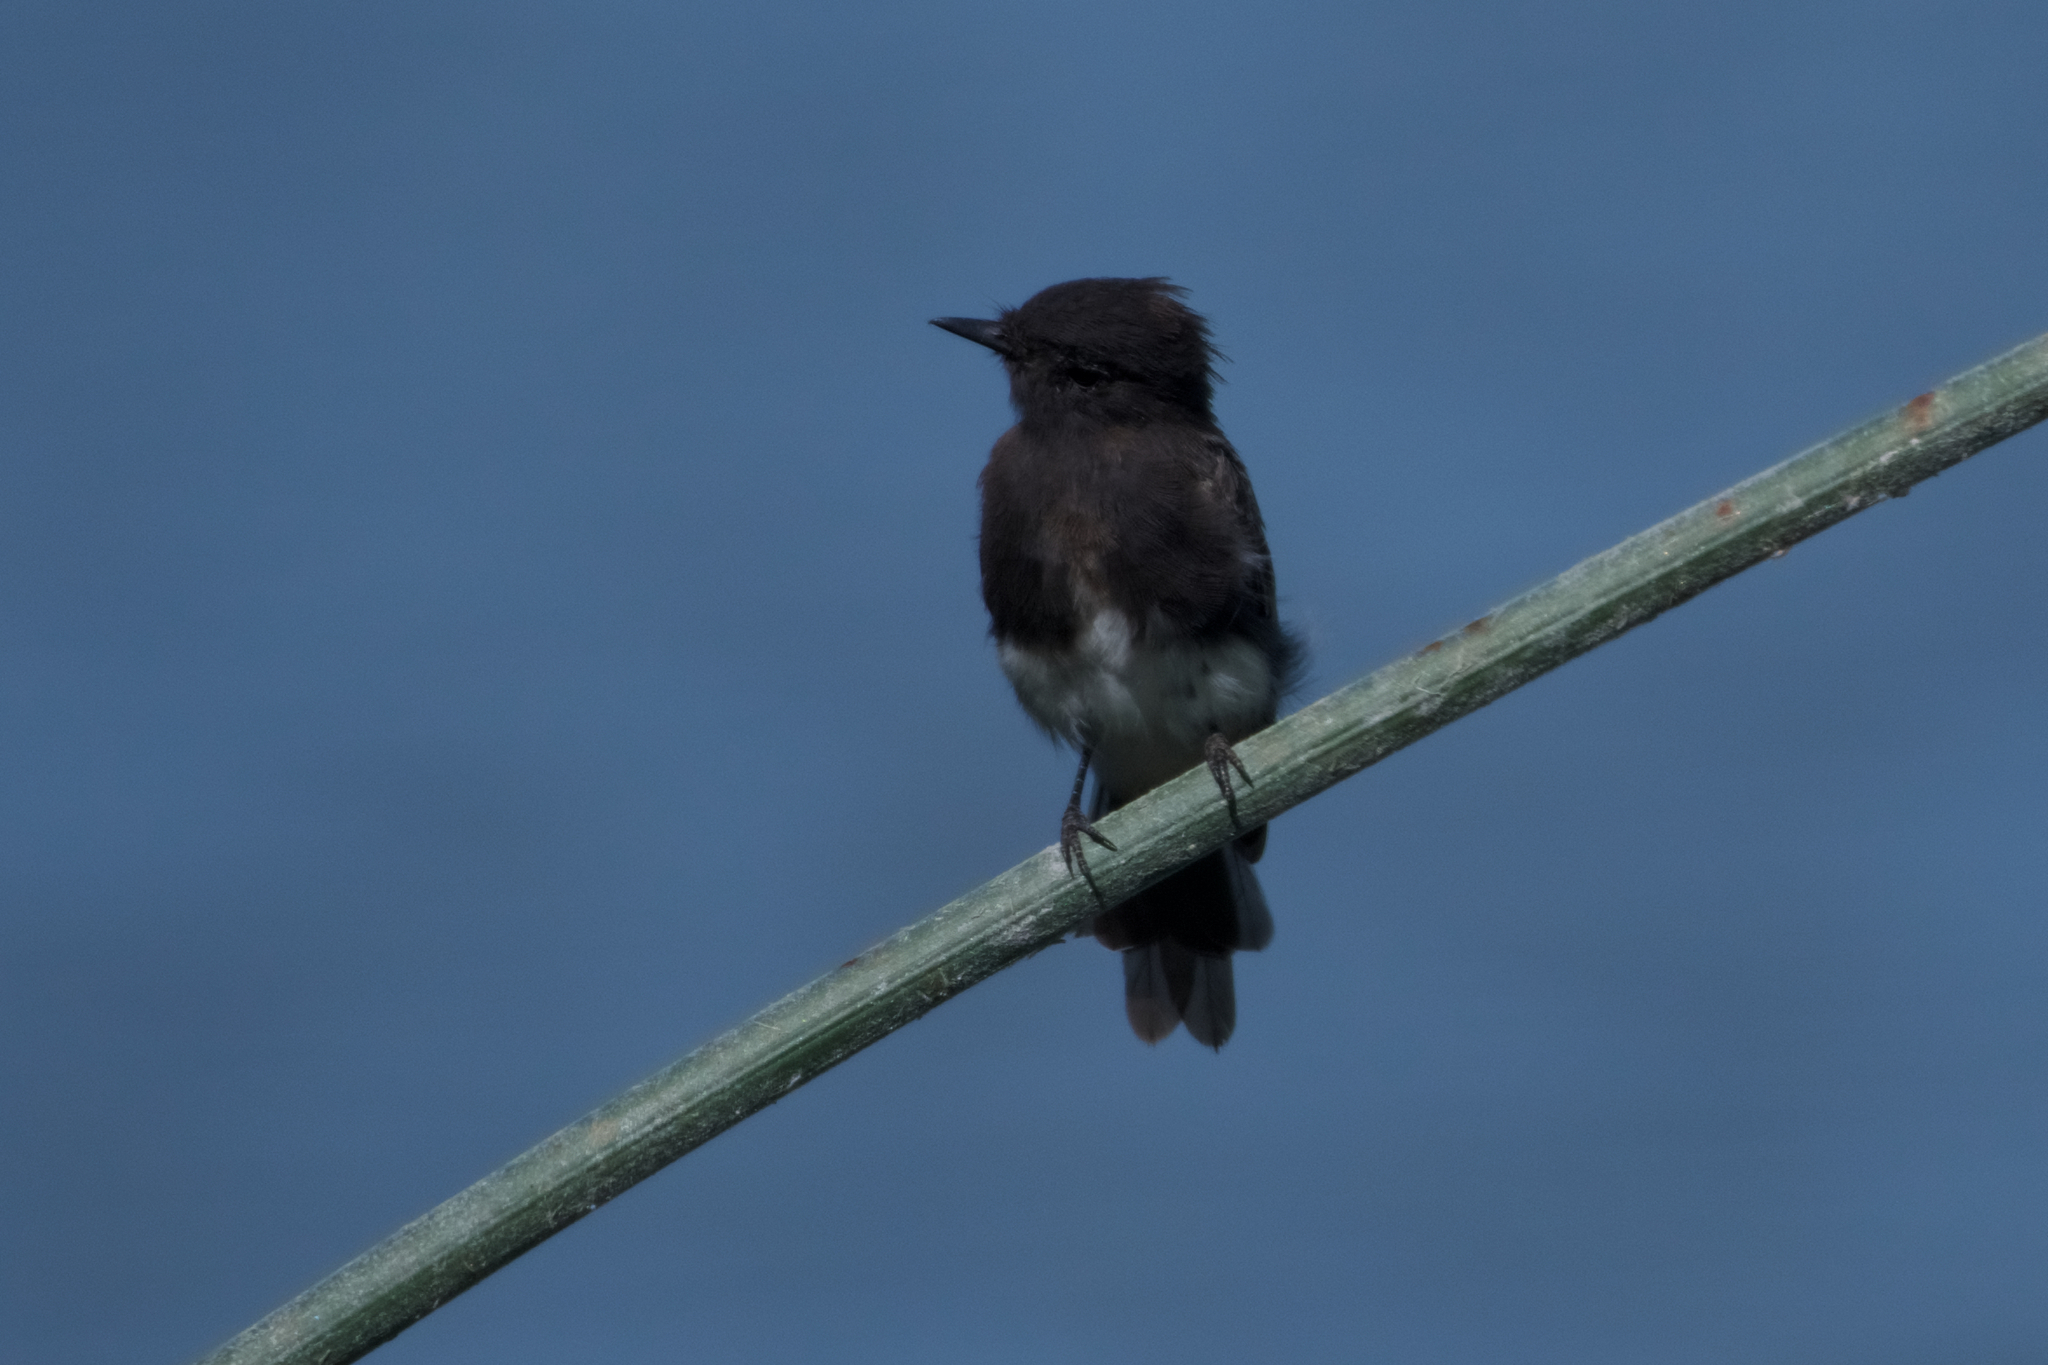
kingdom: Animalia
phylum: Chordata
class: Aves
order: Passeriformes
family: Tyrannidae
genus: Sayornis
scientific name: Sayornis nigricans
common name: Black phoebe
